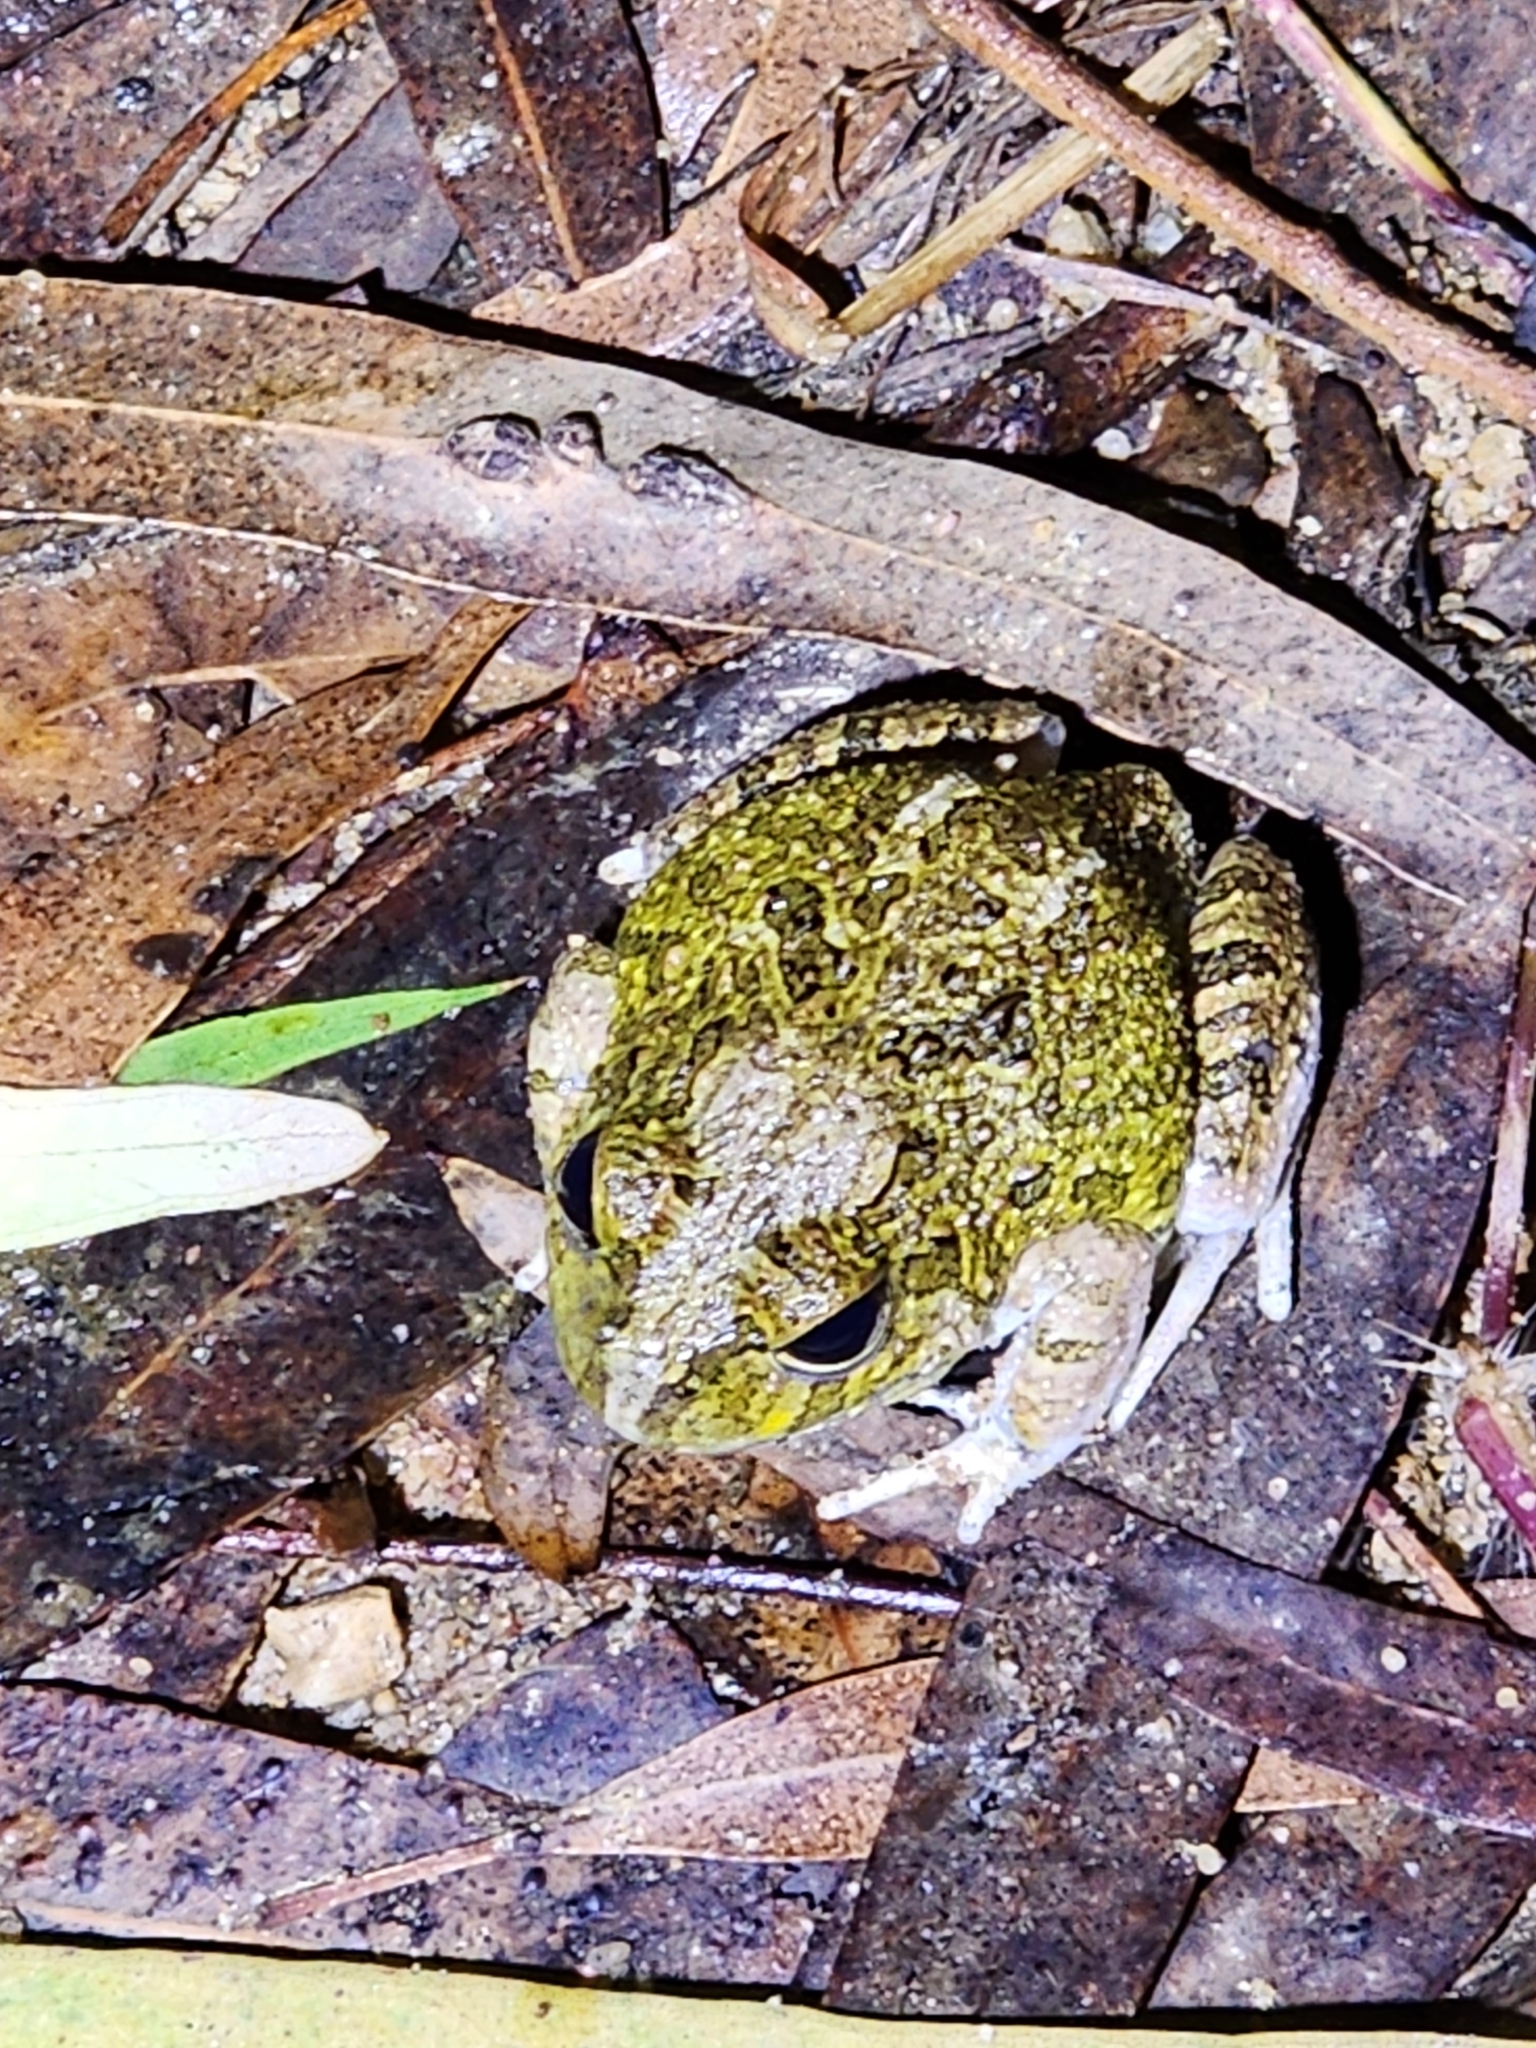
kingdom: Animalia
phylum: Chordata
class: Amphibia
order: Anura
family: Limnodynastidae
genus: Platyplectrum
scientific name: Platyplectrum ornatum
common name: Ornate burrowing frog
